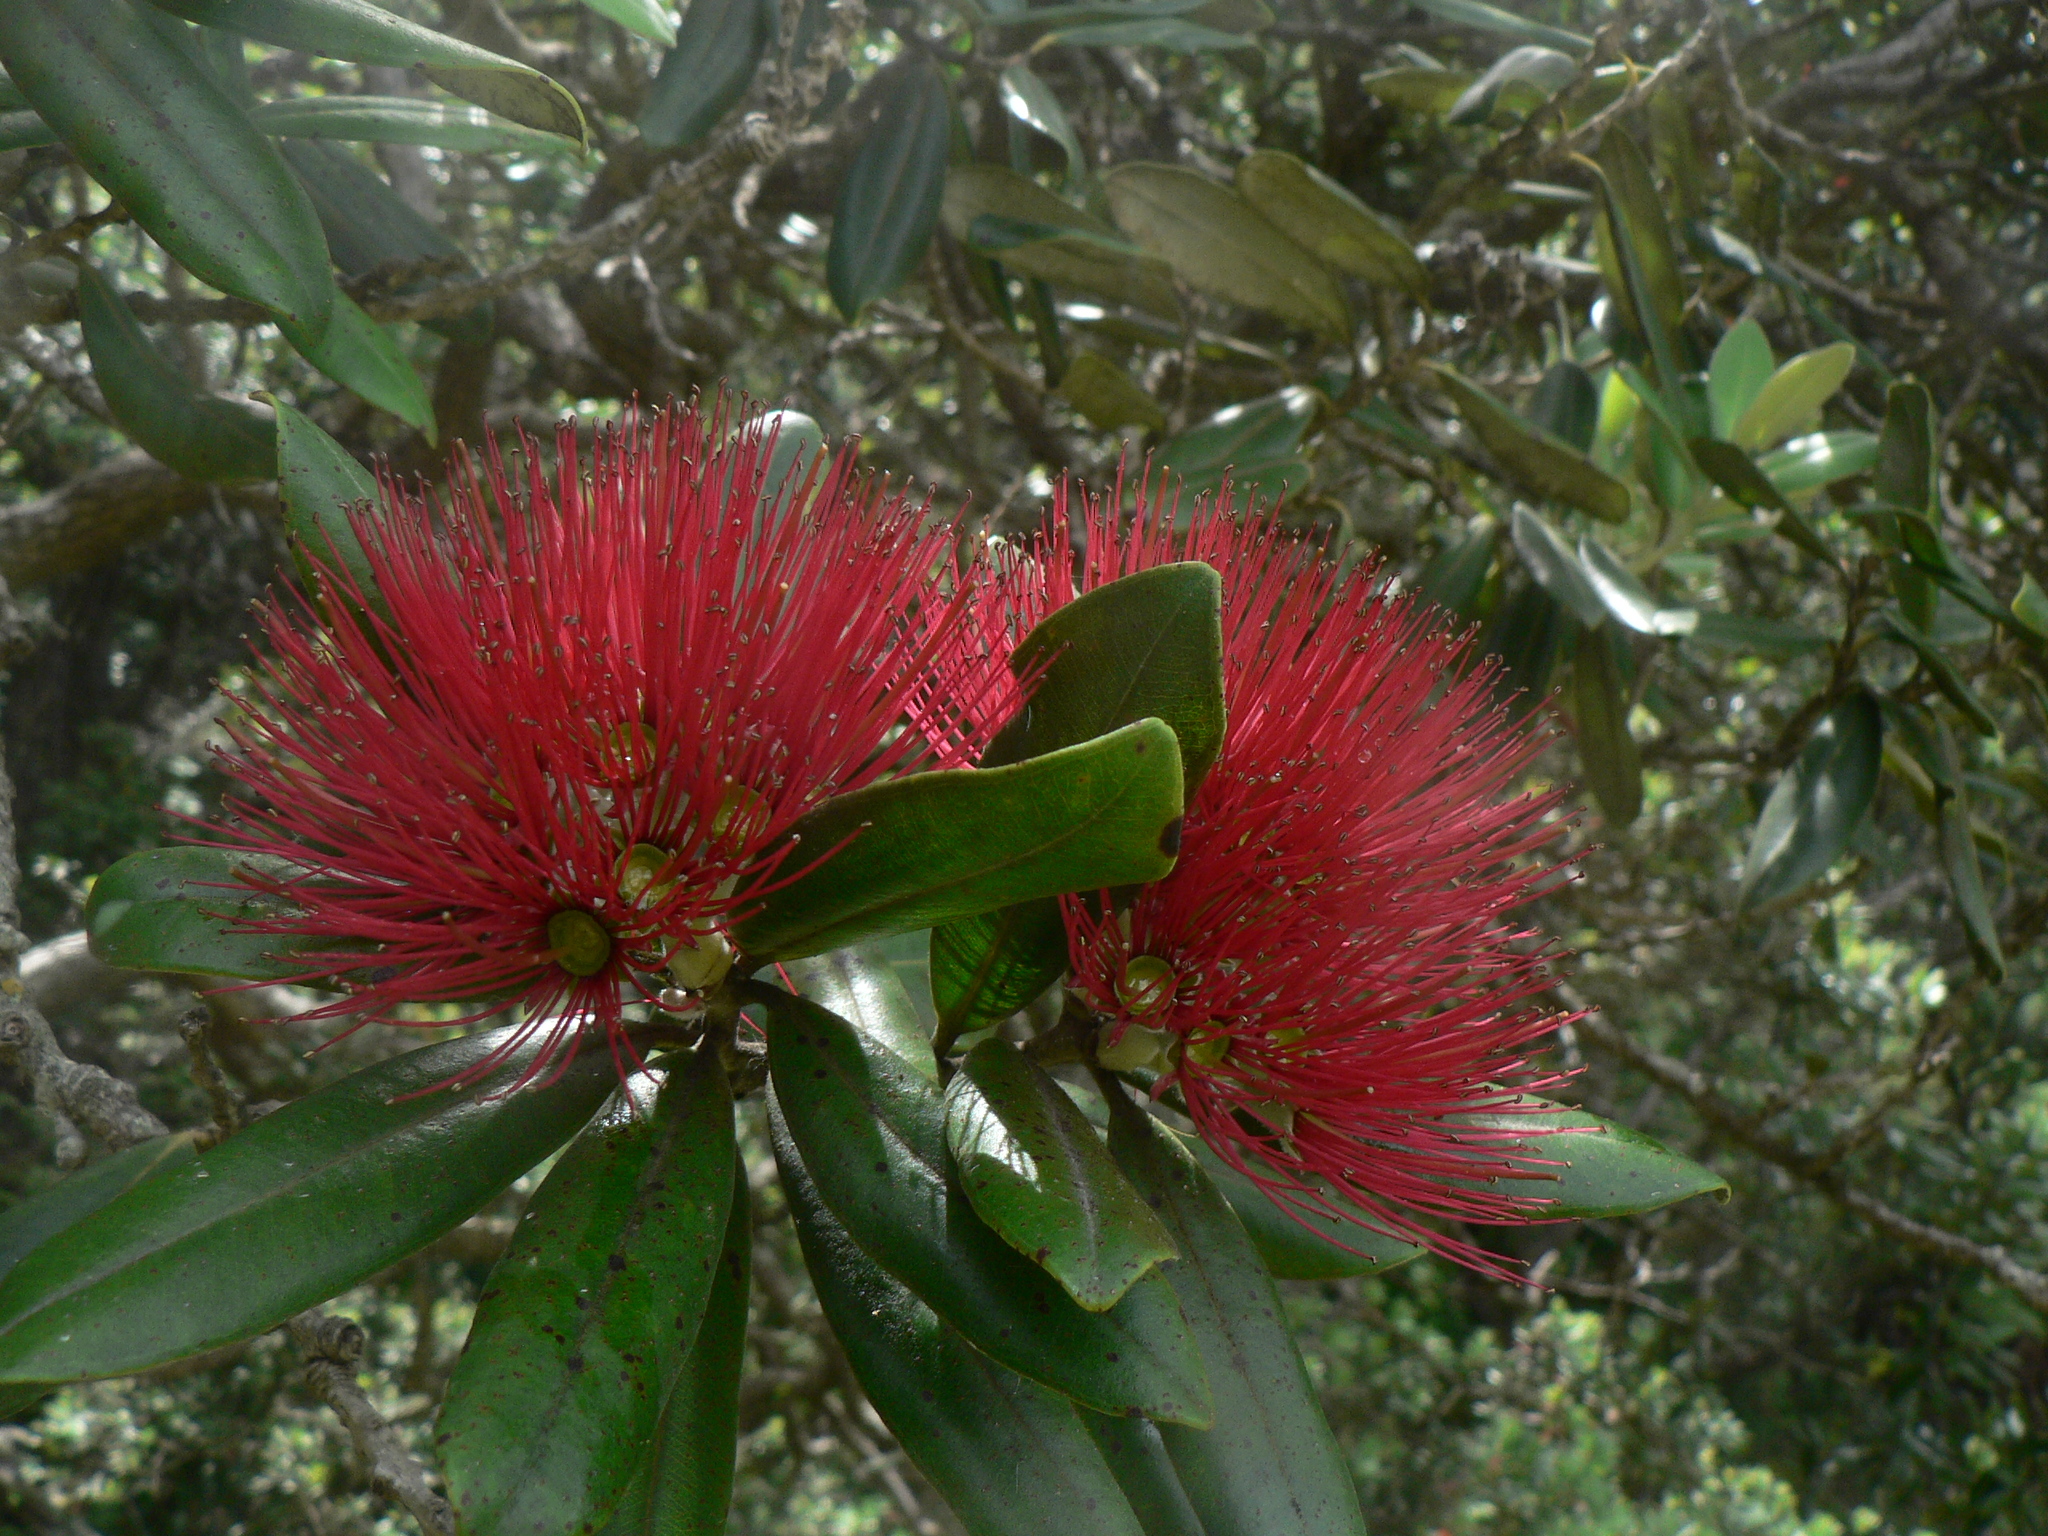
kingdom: Plantae
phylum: Tracheophyta
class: Magnoliopsida
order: Myrtales
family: Myrtaceae
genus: Metrosideros
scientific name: Metrosideros excelsa
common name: New zealand christmastree
